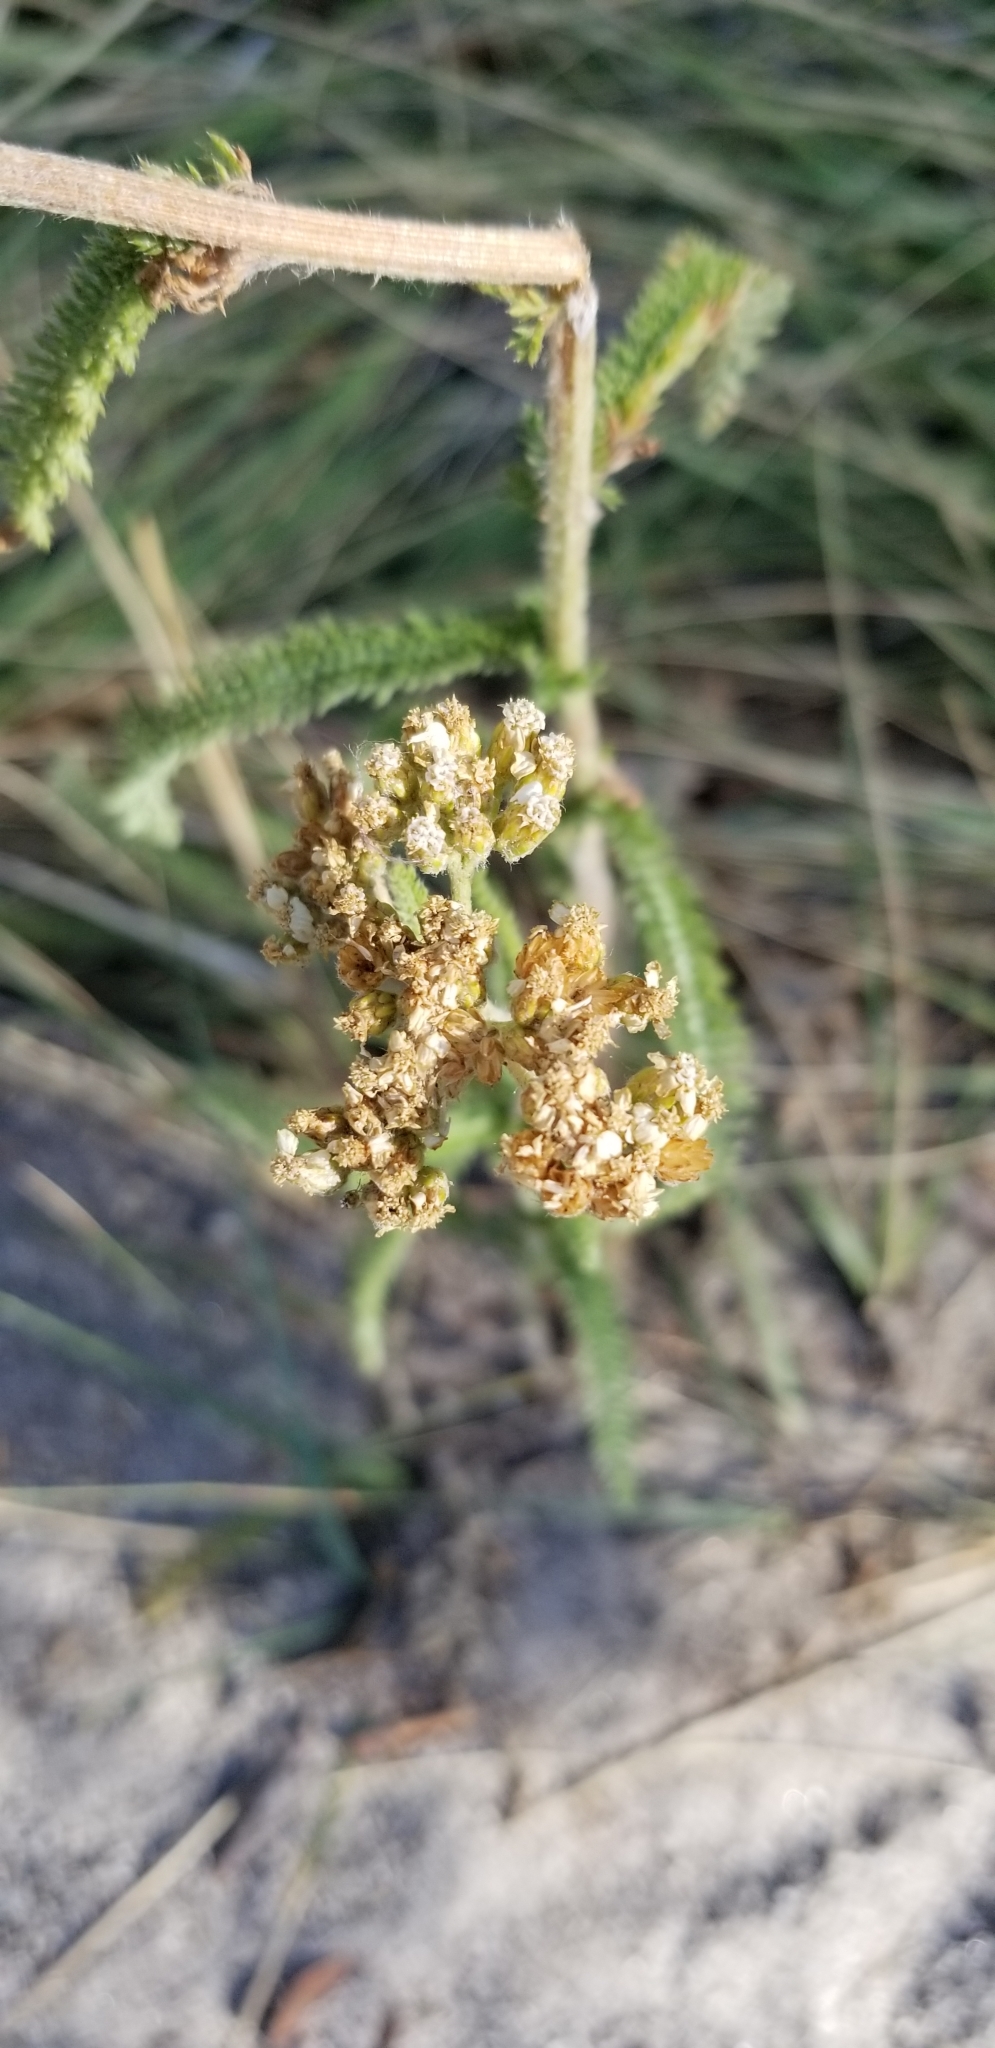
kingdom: Plantae
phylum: Tracheophyta
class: Magnoliopsida
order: Asterales
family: Asteraceae
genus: Achillea
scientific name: Achillea millefolium
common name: Yarrow
